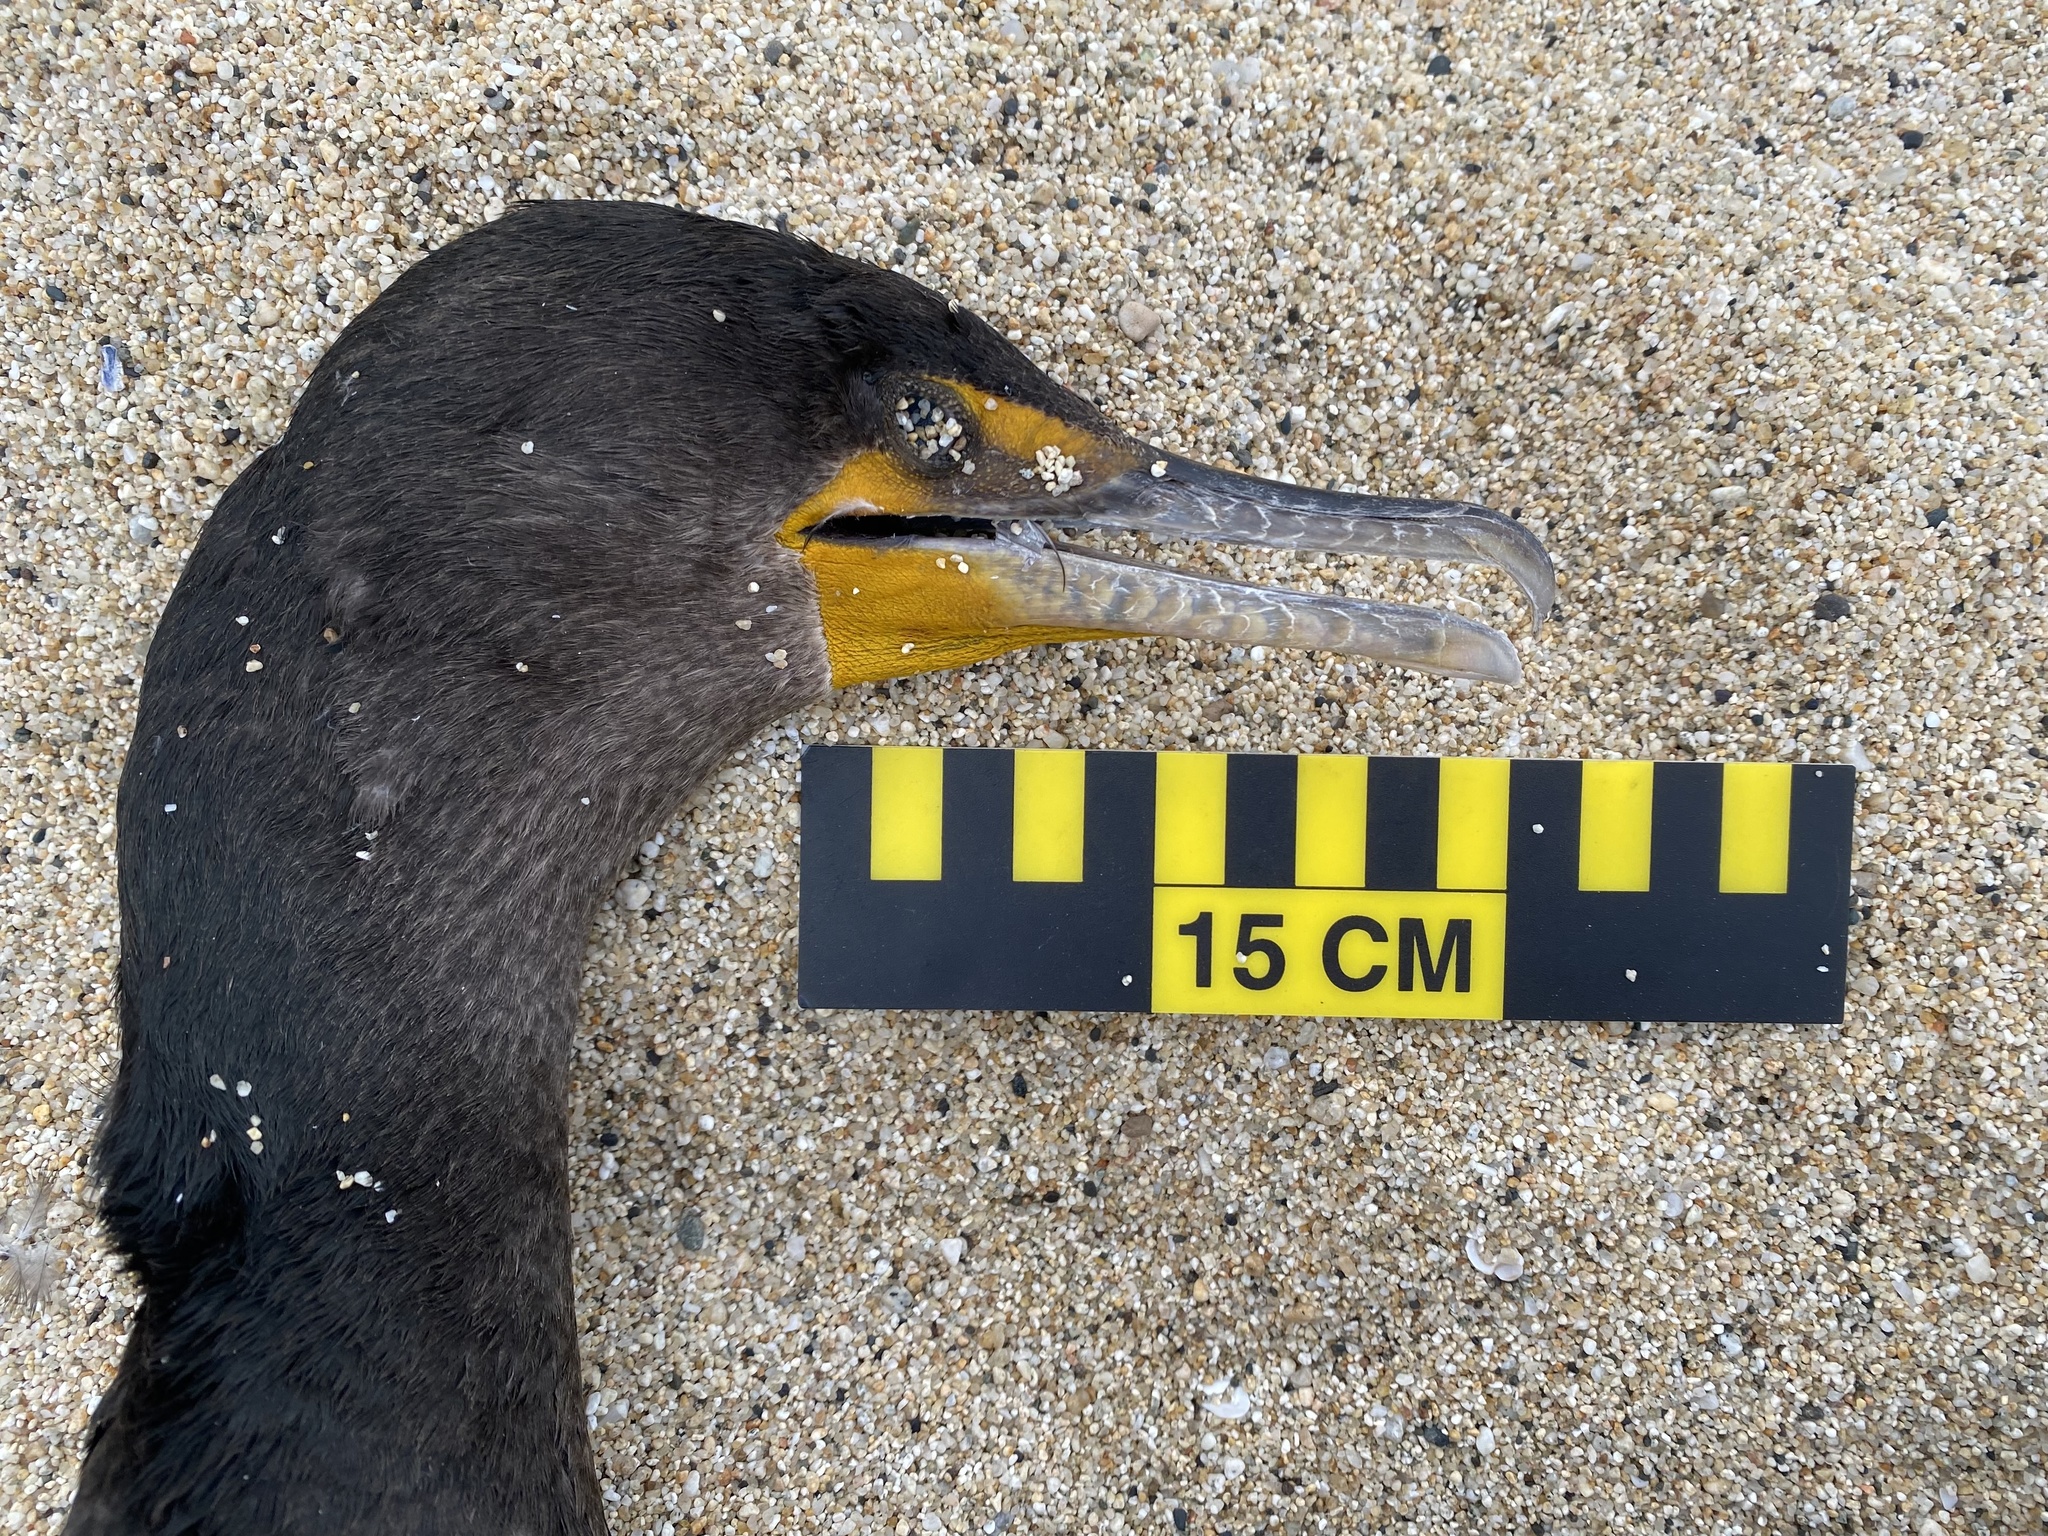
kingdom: Animalia
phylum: Chordata
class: Aves
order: Suliformes
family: Phalacrocoracidae
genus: Phalacrocorax
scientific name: Phalacrocorax auritus
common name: Double-crested cormorant
